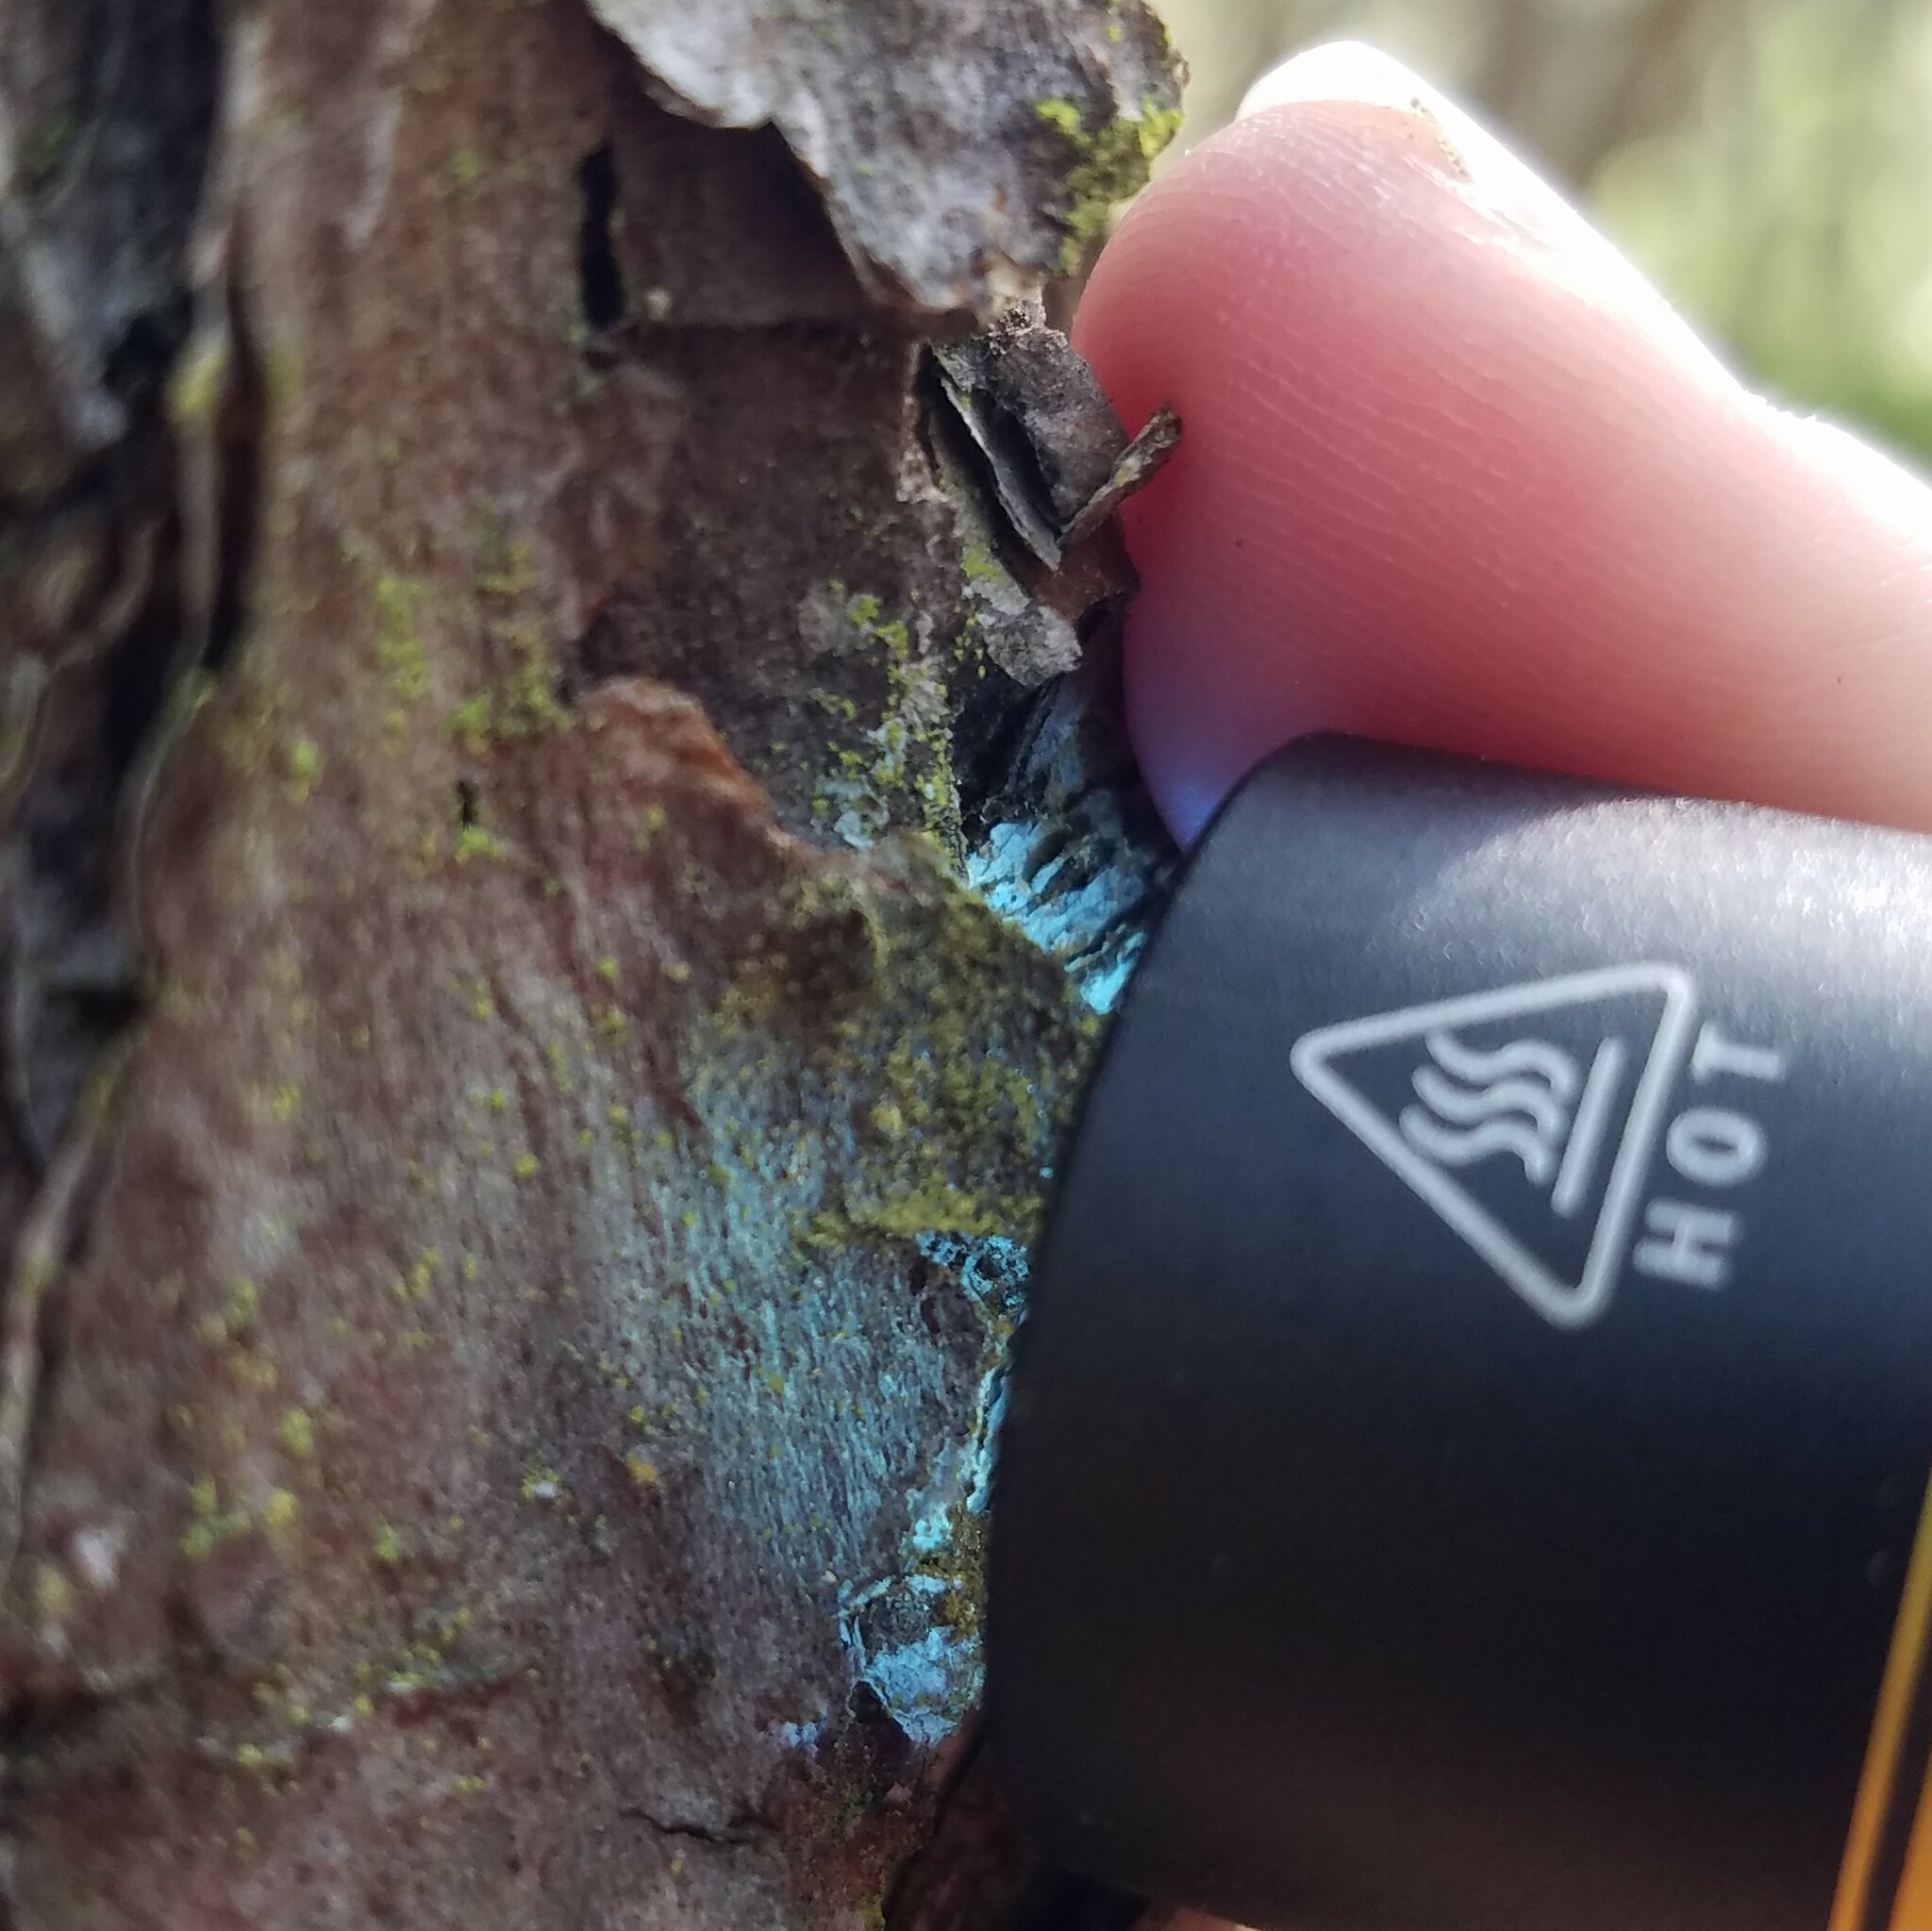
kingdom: Fungi
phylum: Ascomycota
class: Arthoniomycetes
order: Arthoniales
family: Chrysotrichaceae
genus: Chrysothrix
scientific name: Chrysothrix chamaecyparicola
